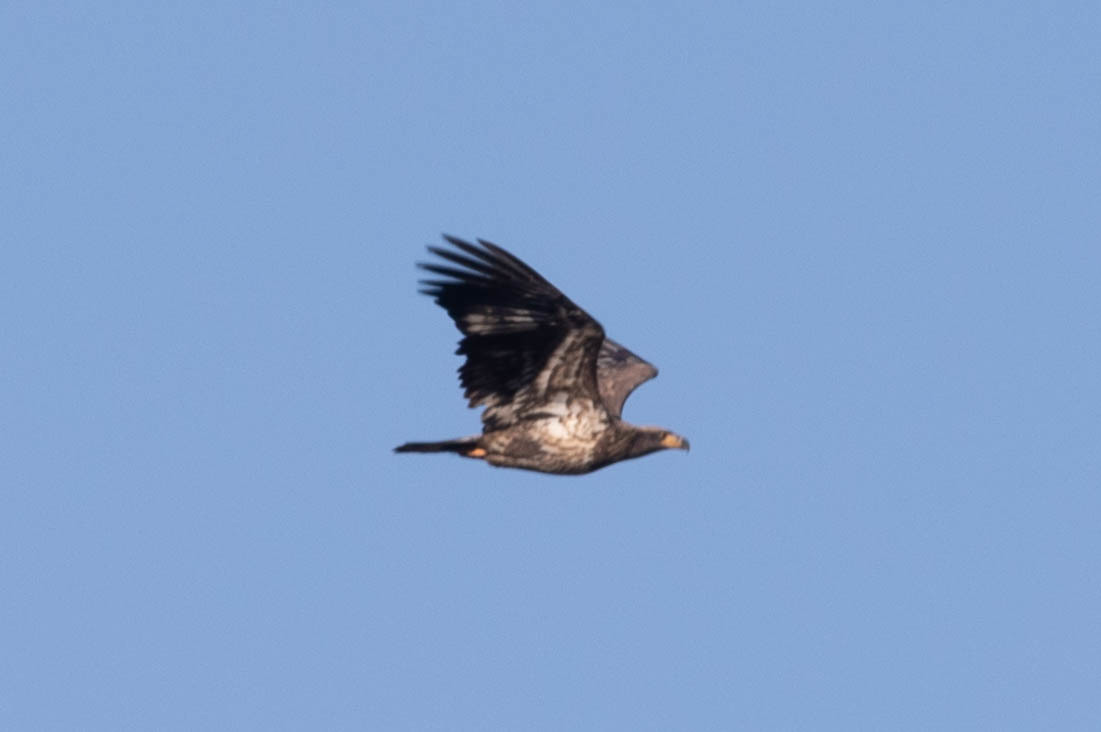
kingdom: Animalia
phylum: Chordata
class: Aves
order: Accipitriformes
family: Accipitridae
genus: Haliaeetus
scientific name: Haliaeetus leucocephalus
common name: Bald eagle
